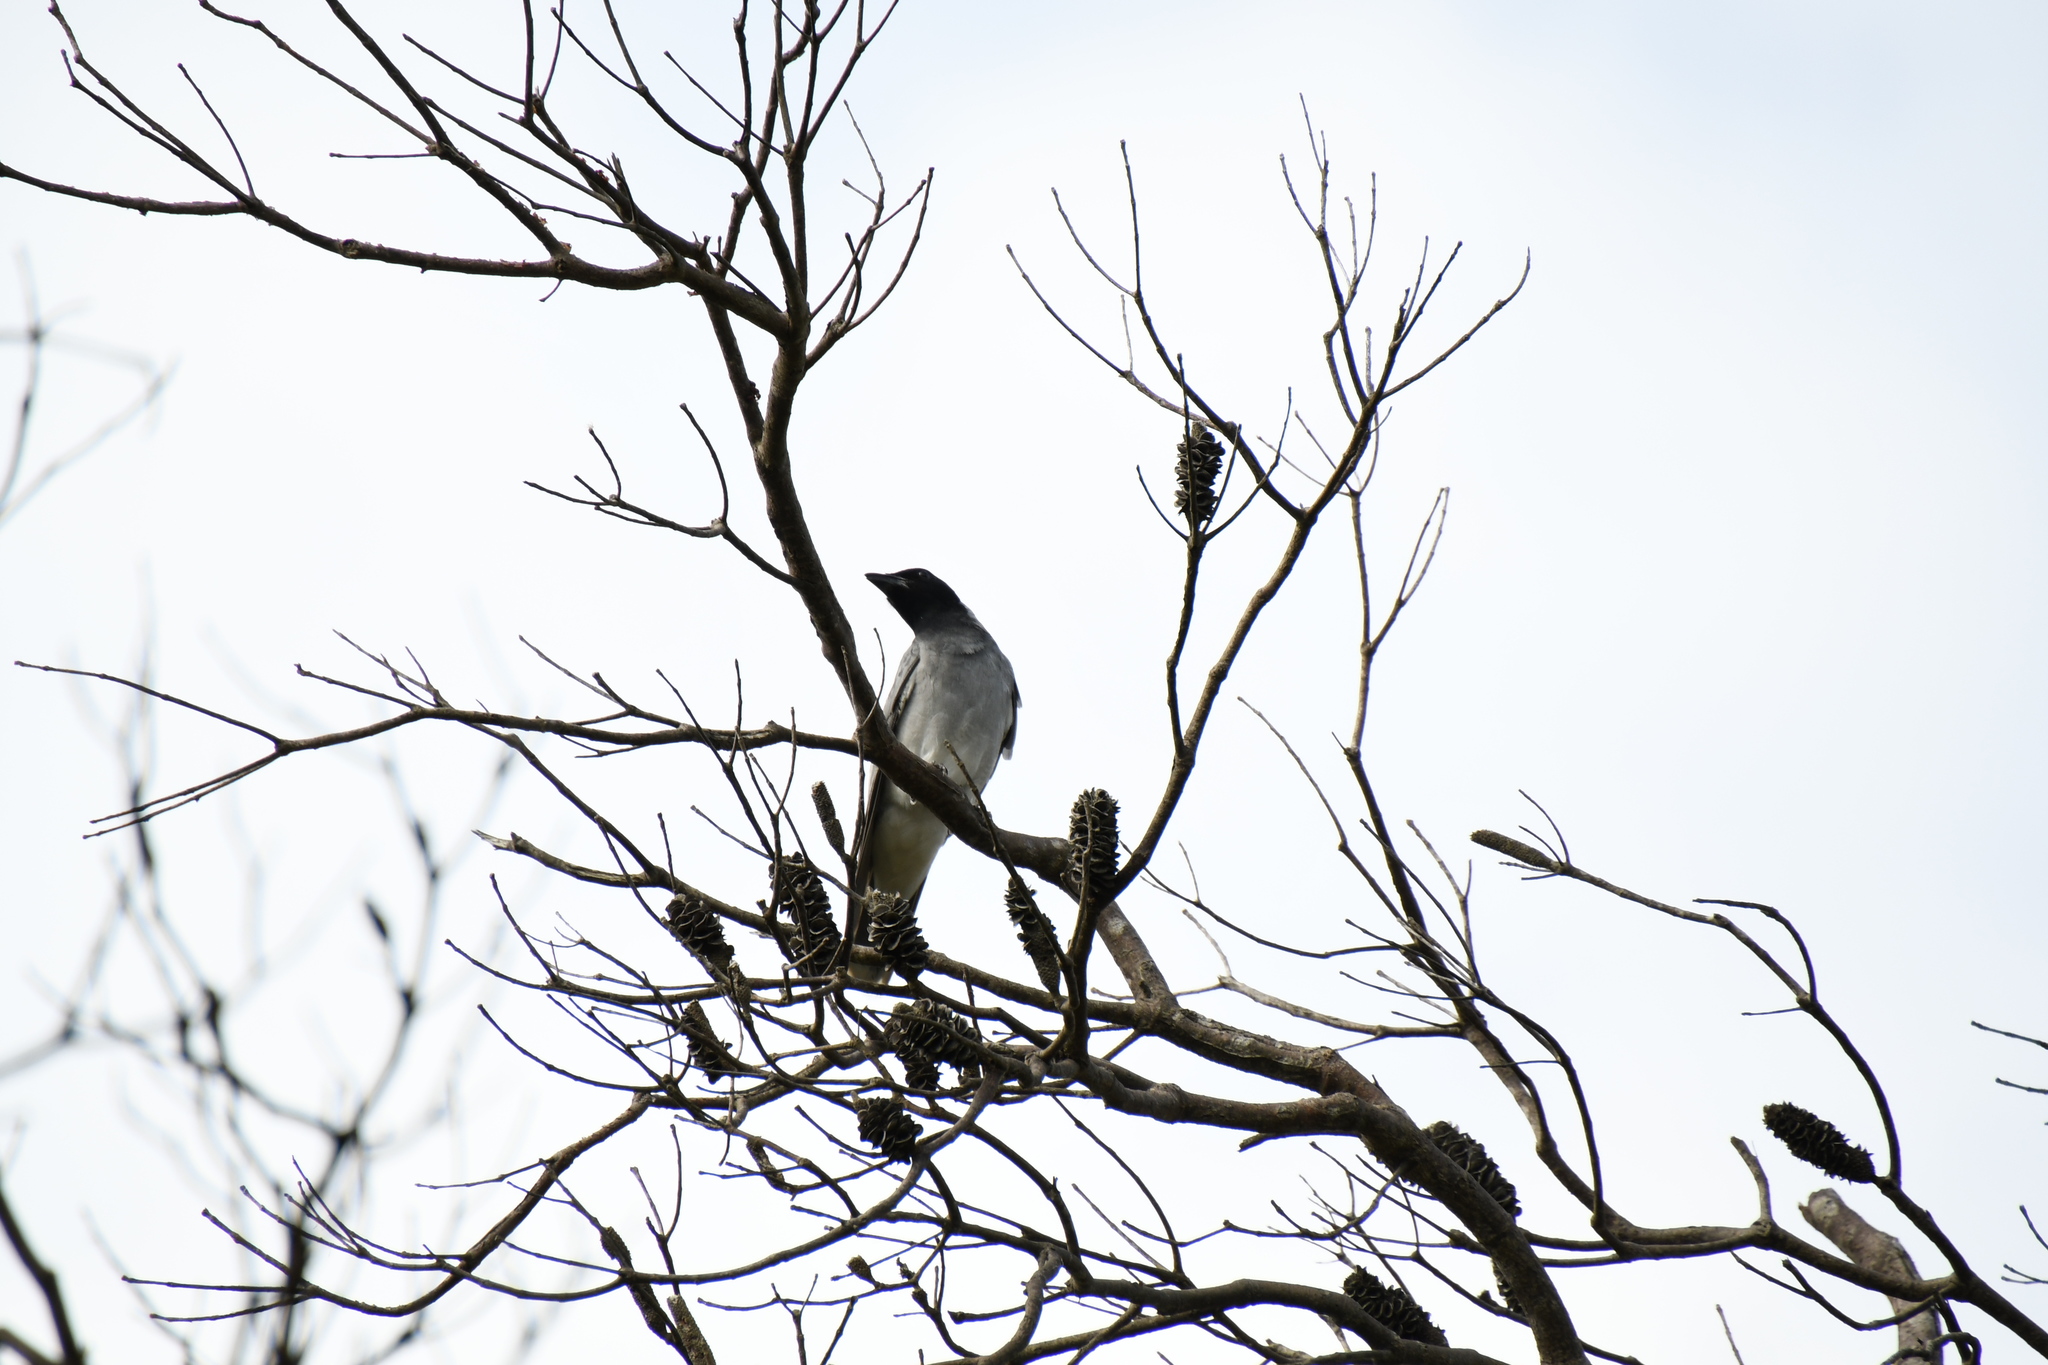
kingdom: Animalia
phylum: Chordata
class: Aves
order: Passeriformes
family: Campephagidae
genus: Coracina
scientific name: Coracina novaehollandiae
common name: Black-faced cuckooshrike
